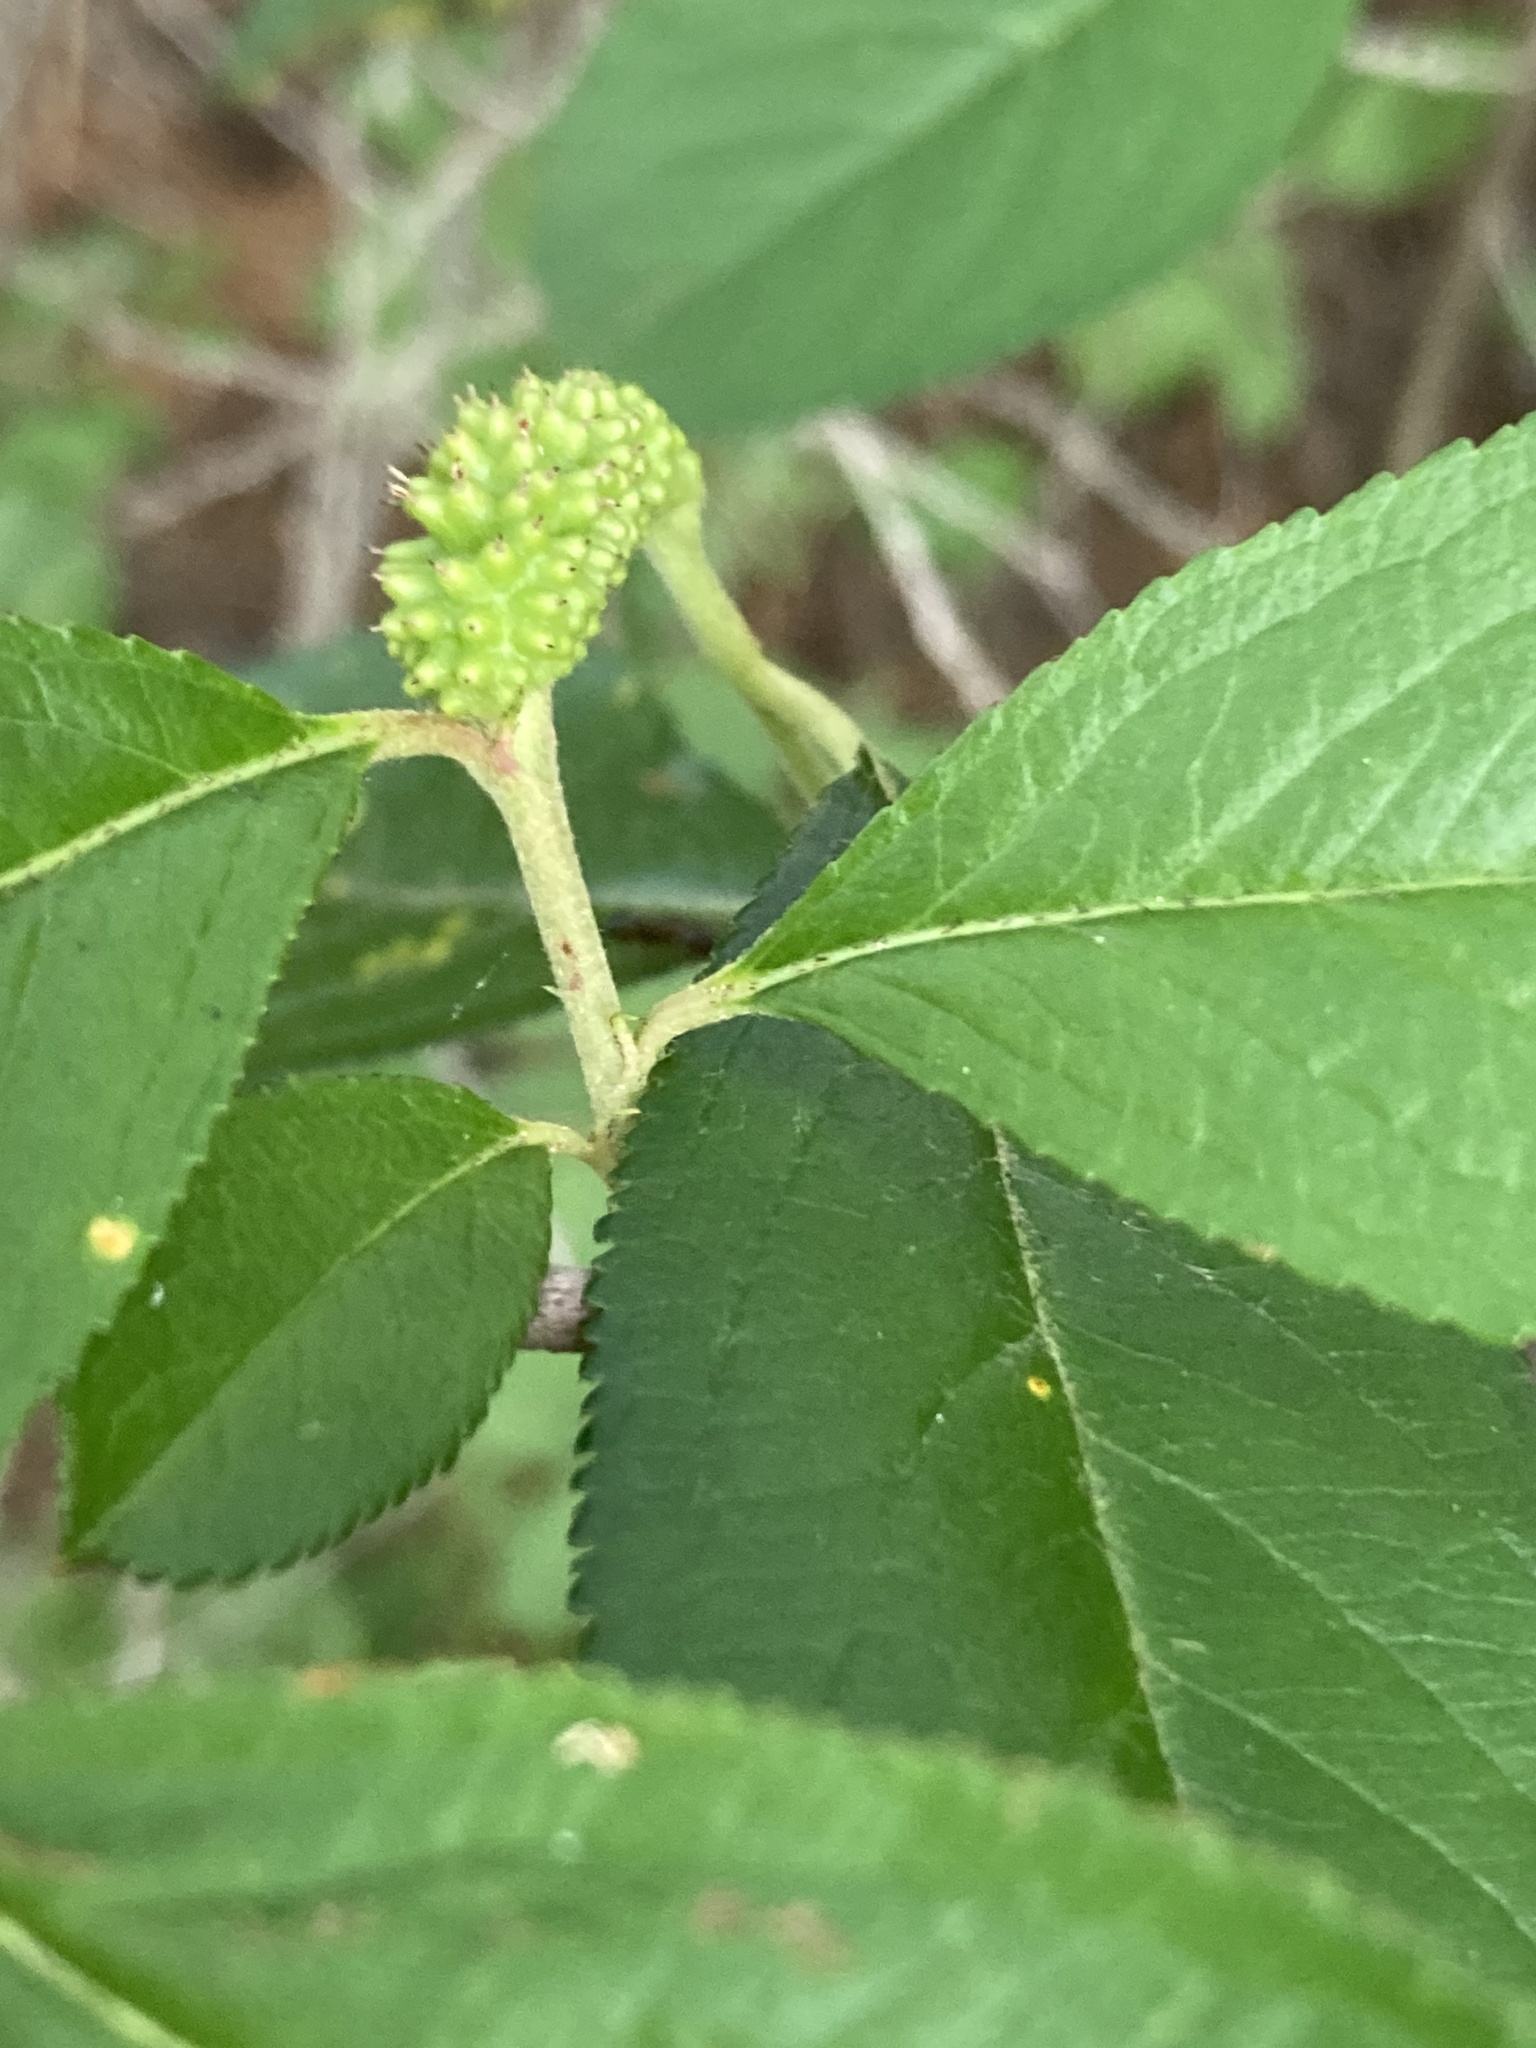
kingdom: Plantae
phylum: Tracheophyta
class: Magnoliopsida
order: Rosales
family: Rosaceae
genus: Aronia
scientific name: Aronia arbutifolia
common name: Red chokeberry
